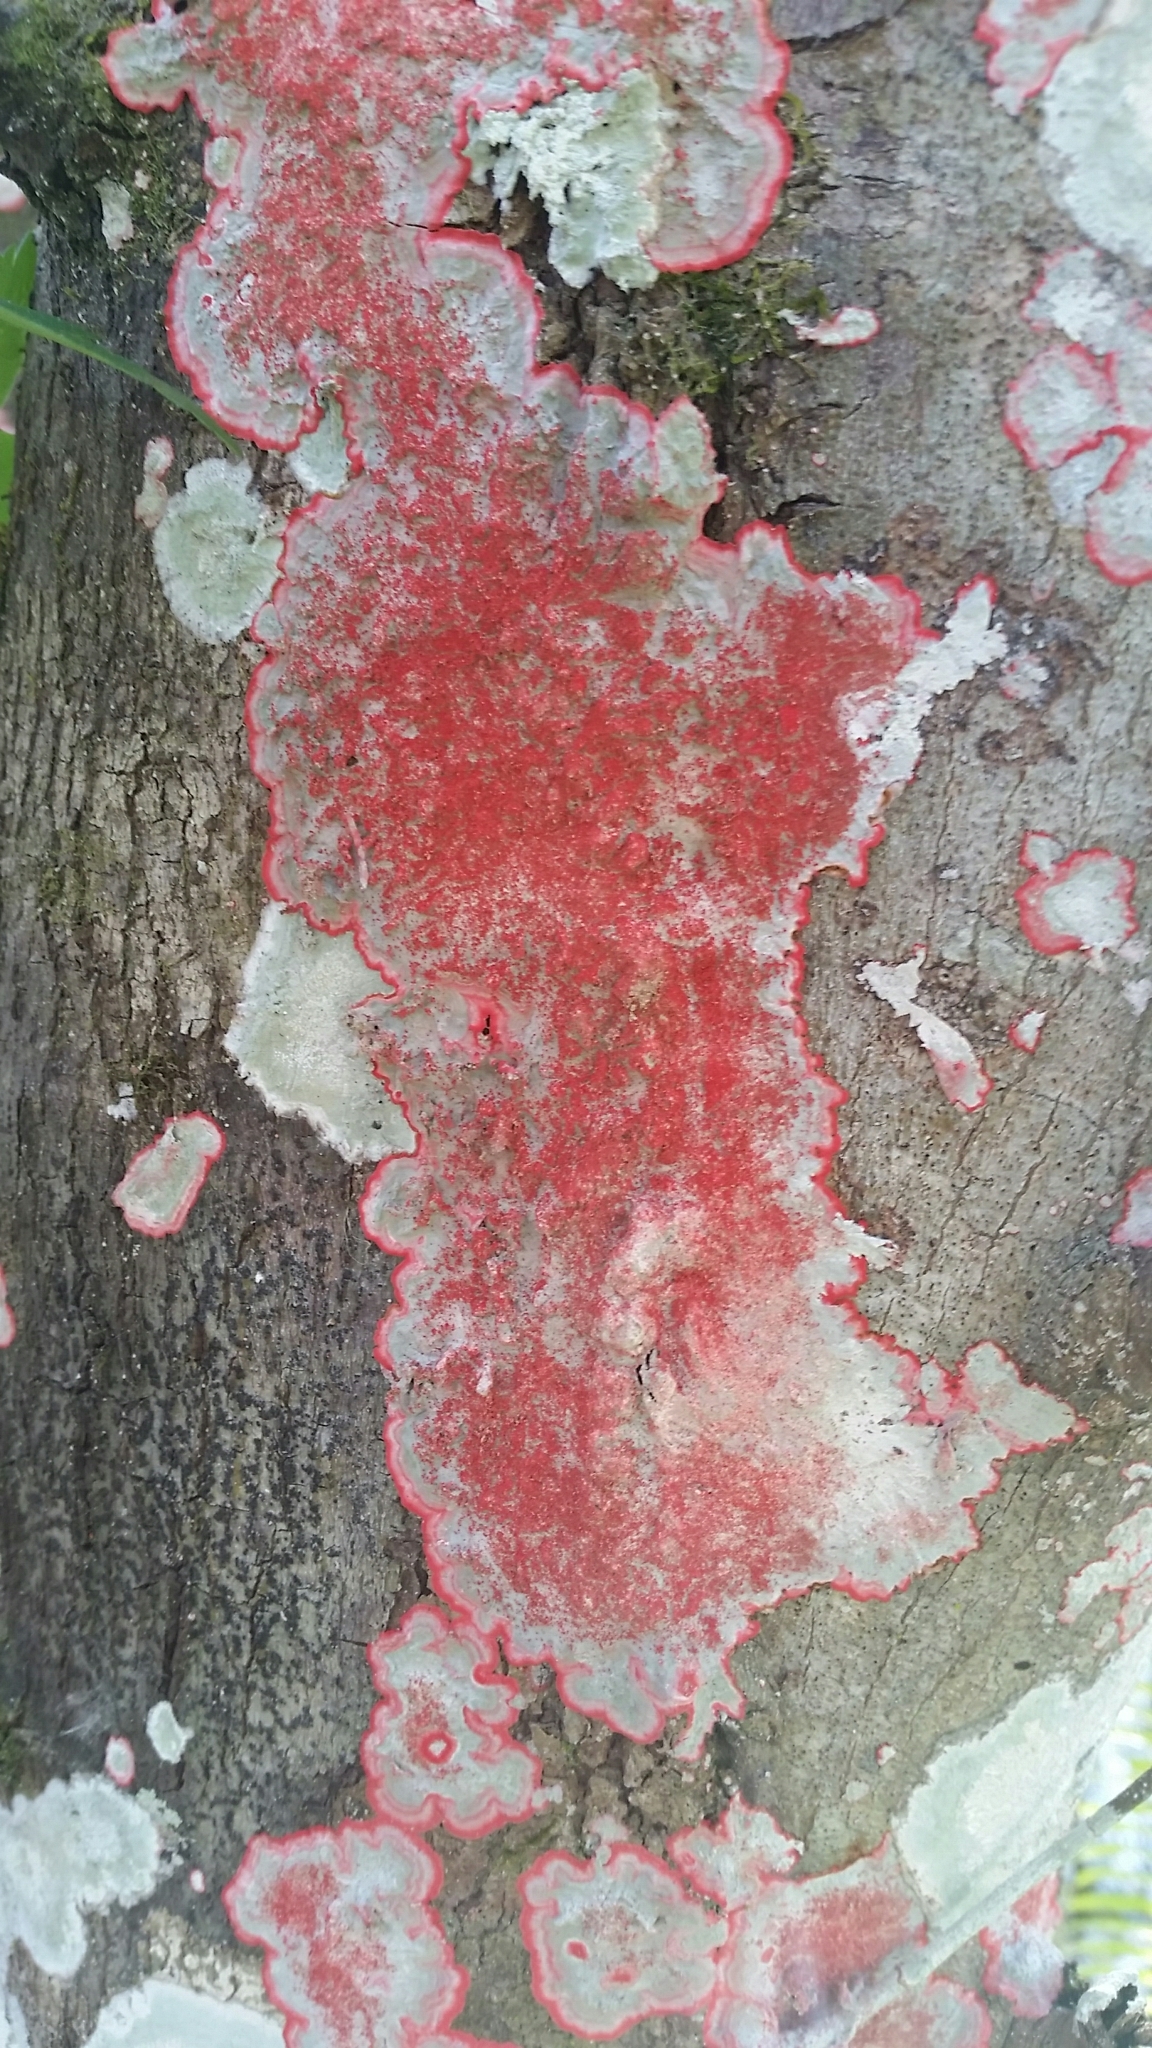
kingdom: Fungi
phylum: Ascomycota
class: Arthoniomycetes
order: Arthoniales
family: Arthoniaceae
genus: Herpothallon
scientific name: Herpothallon rubrocinctum
